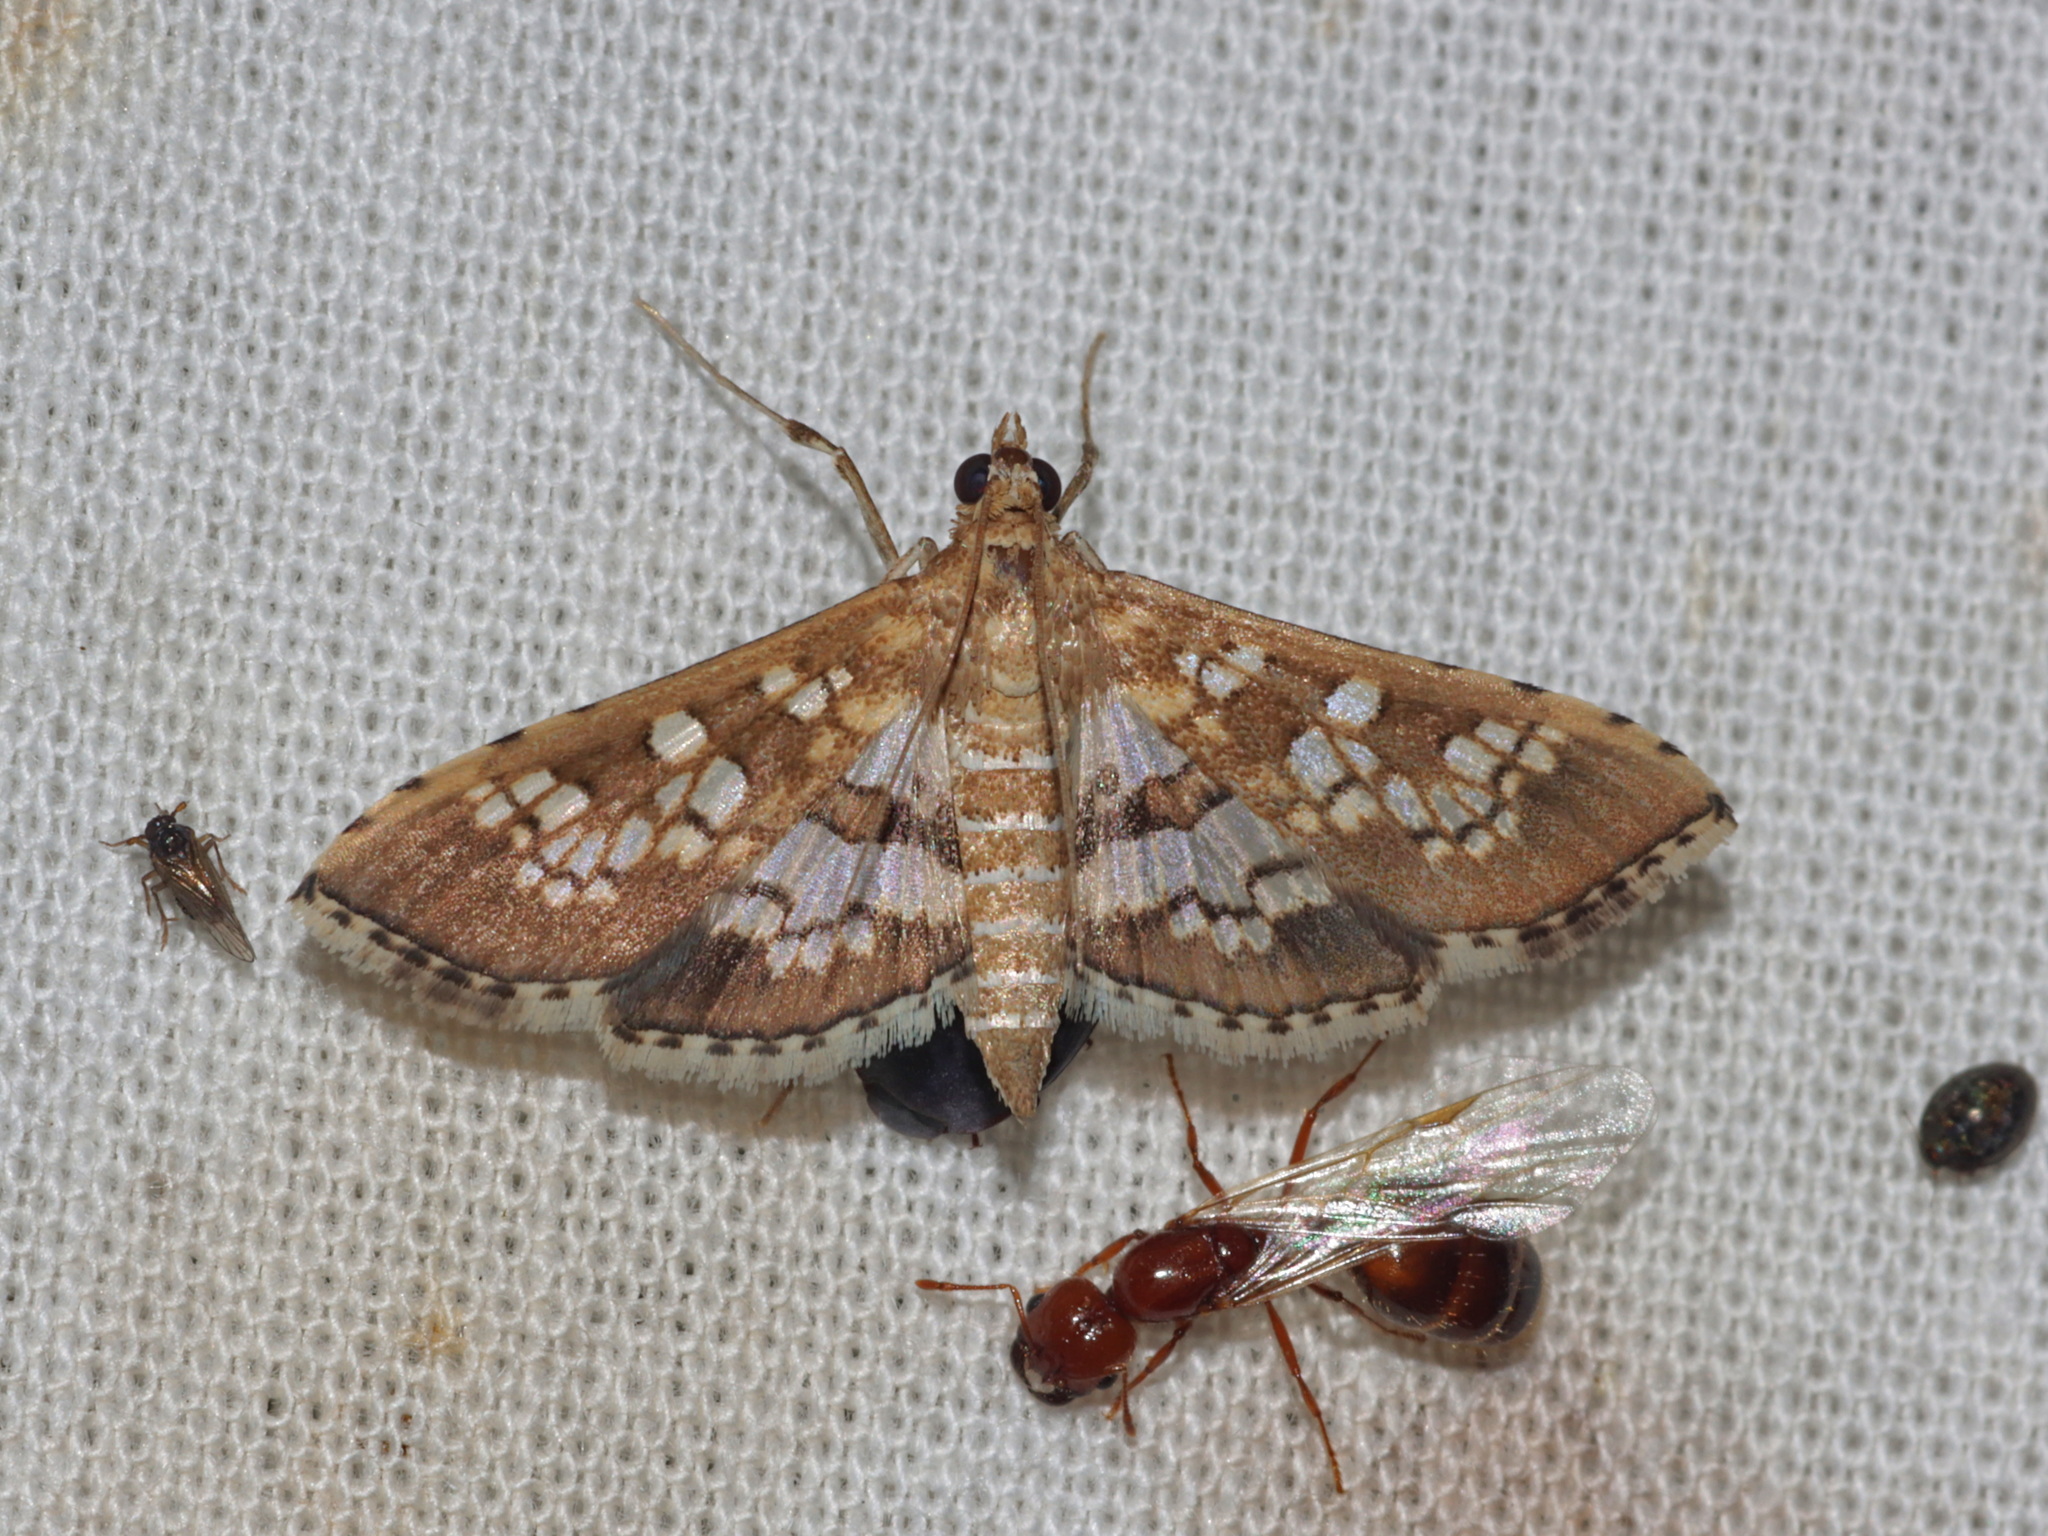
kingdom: Animalia
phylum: Arthropoda
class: Insecta
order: Lepidoptera
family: Crambidae
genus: Sameodes
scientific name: Sameodes cancellalis
